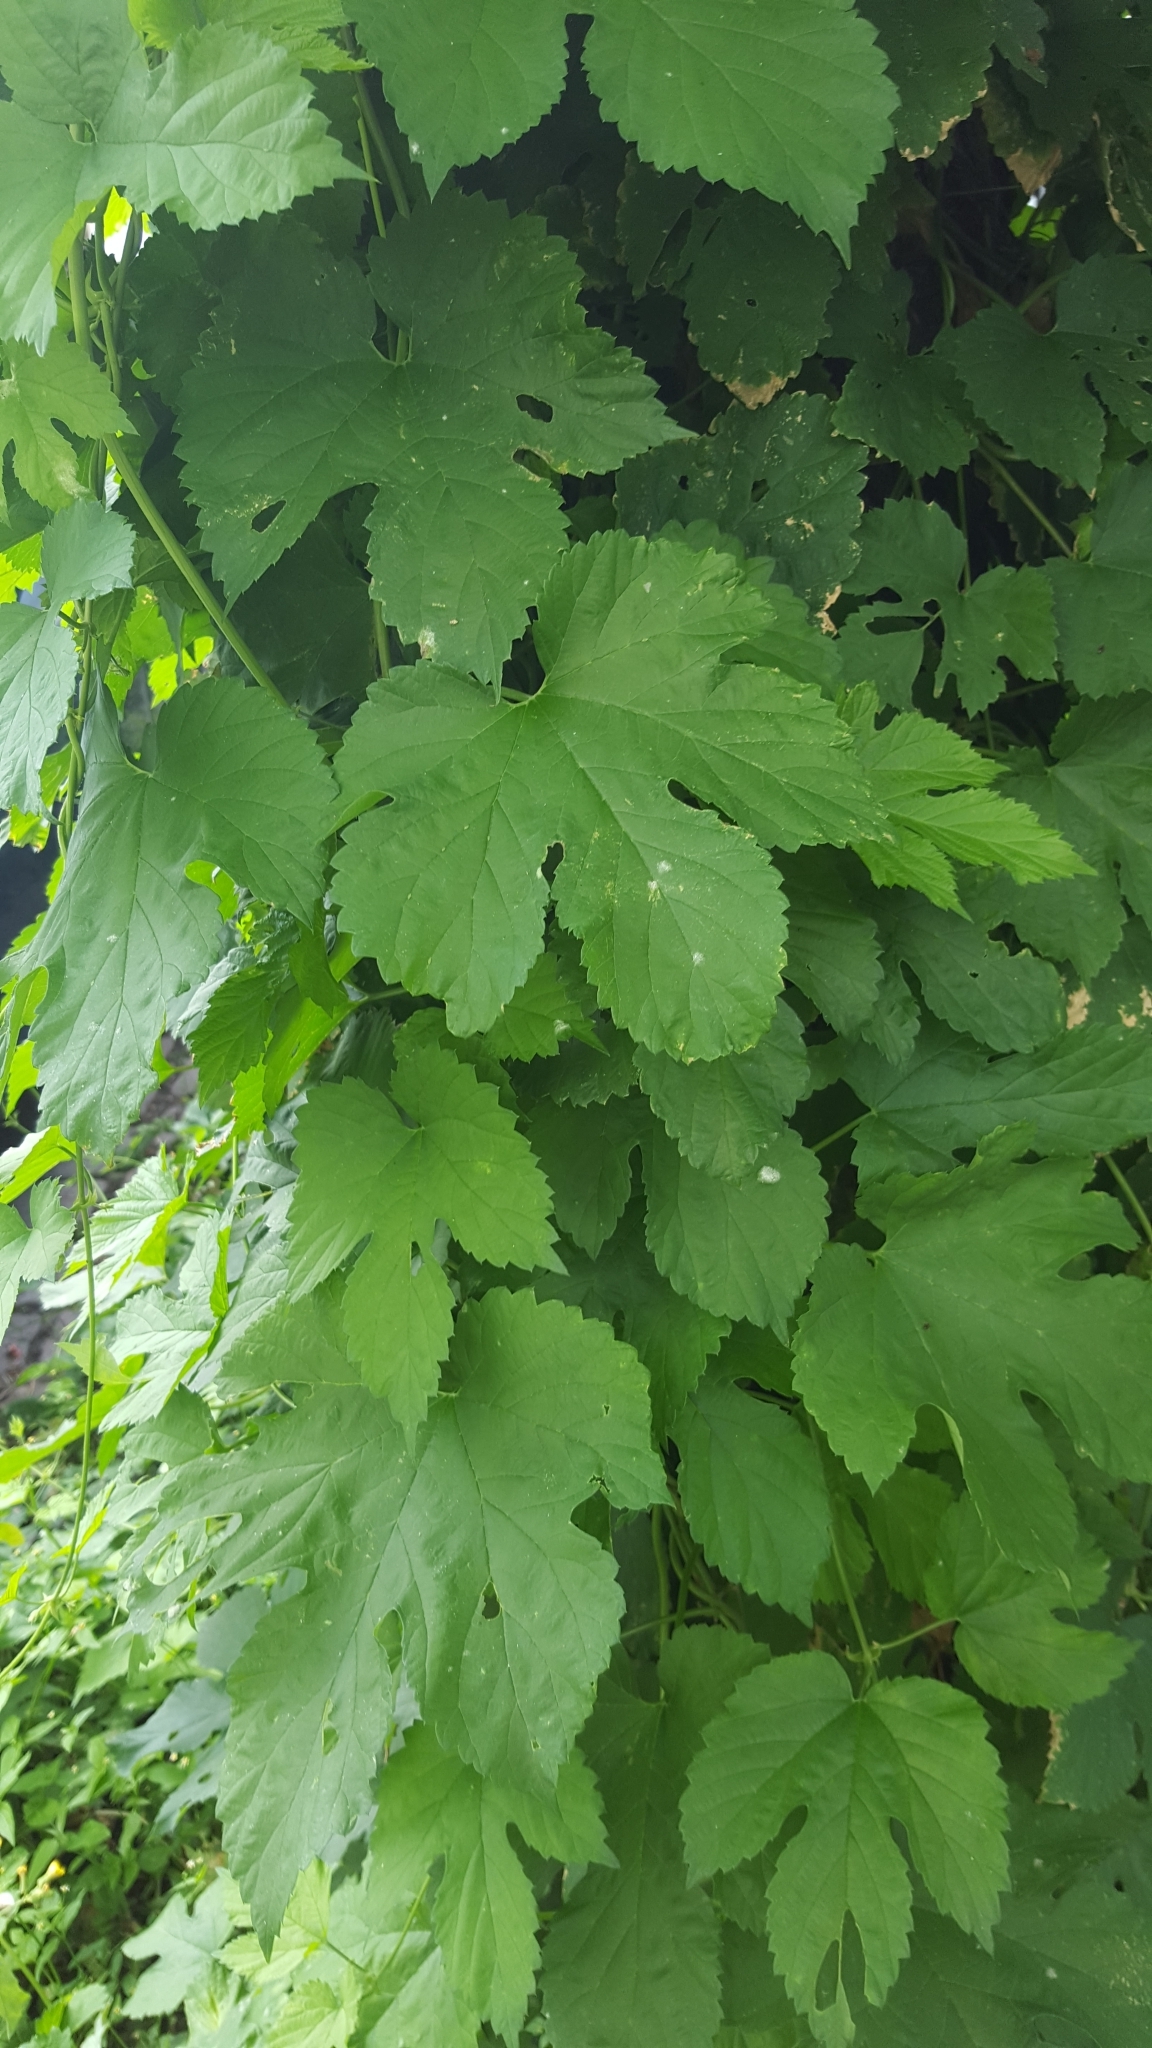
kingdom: Plantae
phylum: Tracheophyta
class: Magnoliopsida
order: Rosales
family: Cannabaceae
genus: Humulus
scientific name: Humulus lupulus
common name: Hop
